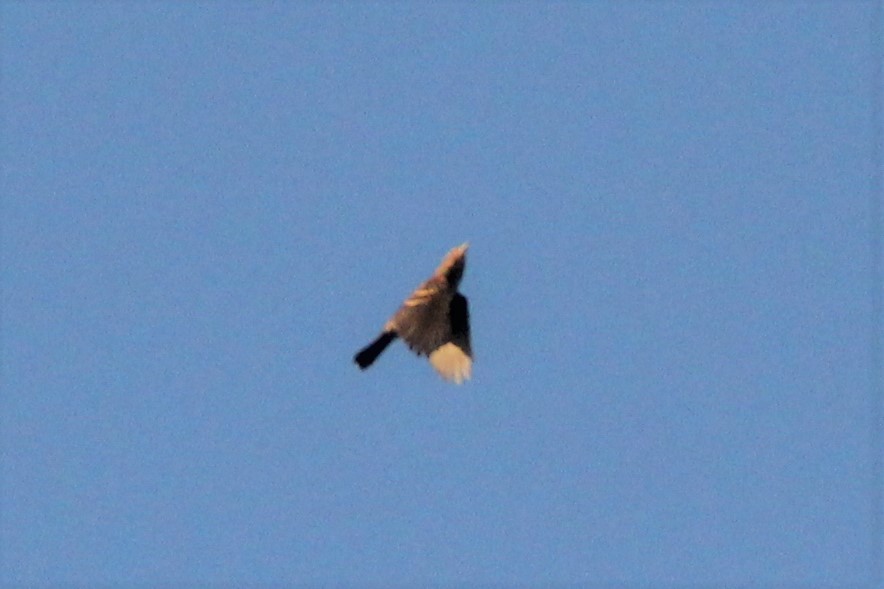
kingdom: Animalia
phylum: Chordata
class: Aves
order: Passeriformes
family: Icteridae
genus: Agelaius
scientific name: Agelaius phoeniceus
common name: Red-winged blackbird
